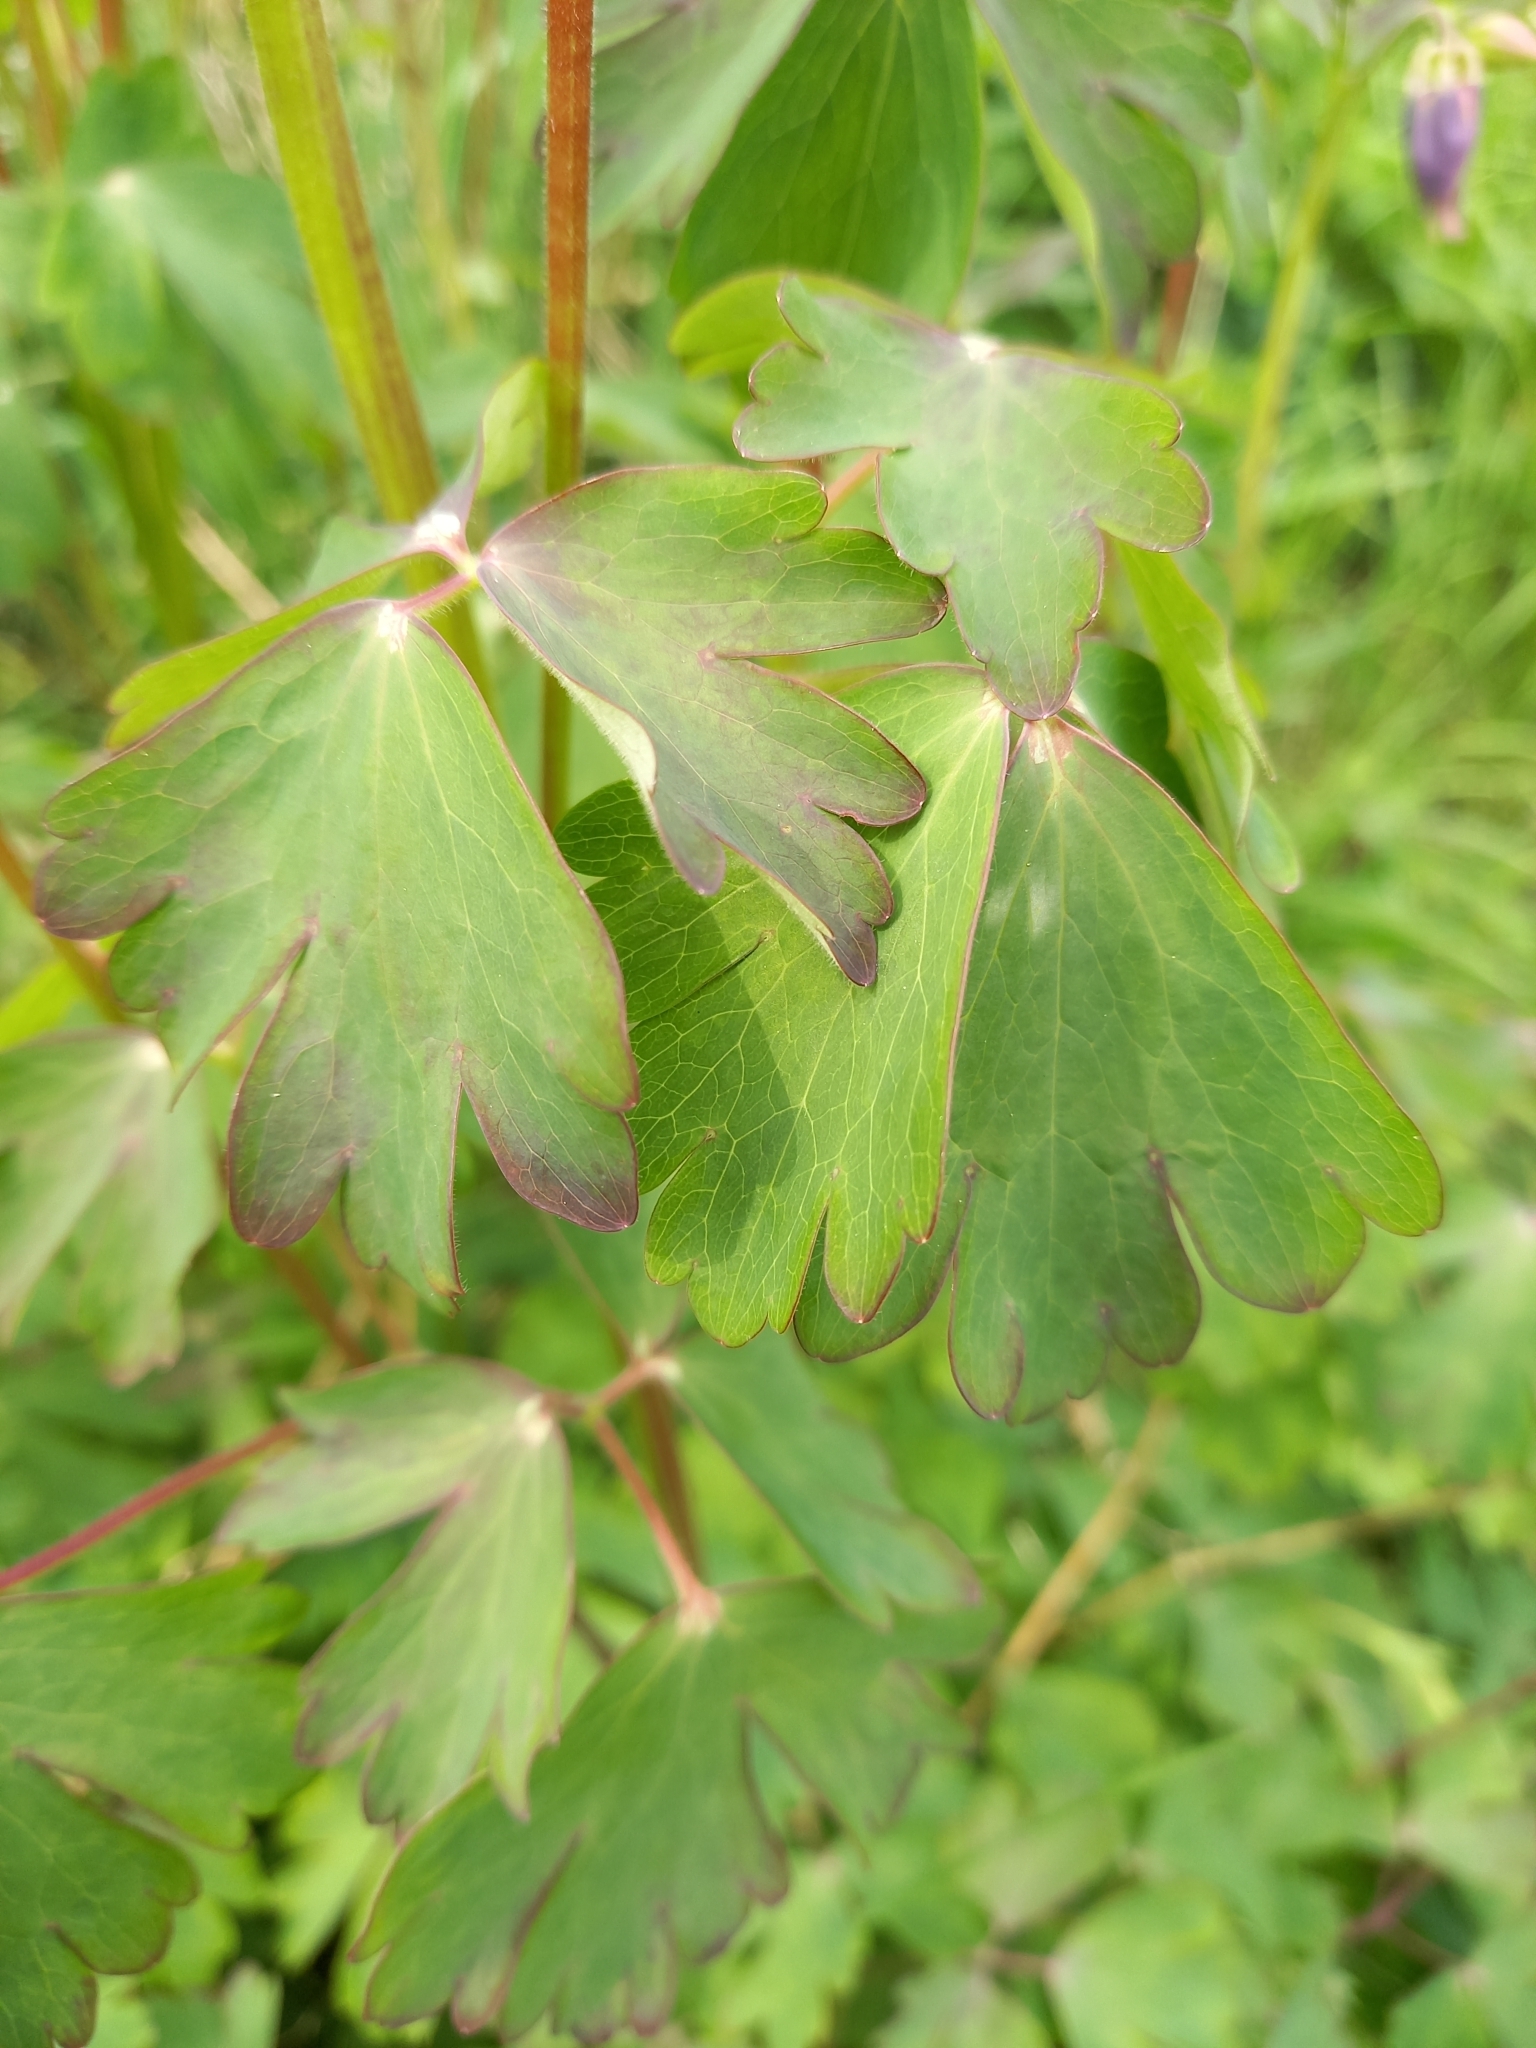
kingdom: Plantae
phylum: Tracheophyta
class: Magnoliopsida
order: Ranunculales
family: Ranunculaceae
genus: Aquilegia
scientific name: Aquilegia vulgaris
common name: Columbine
